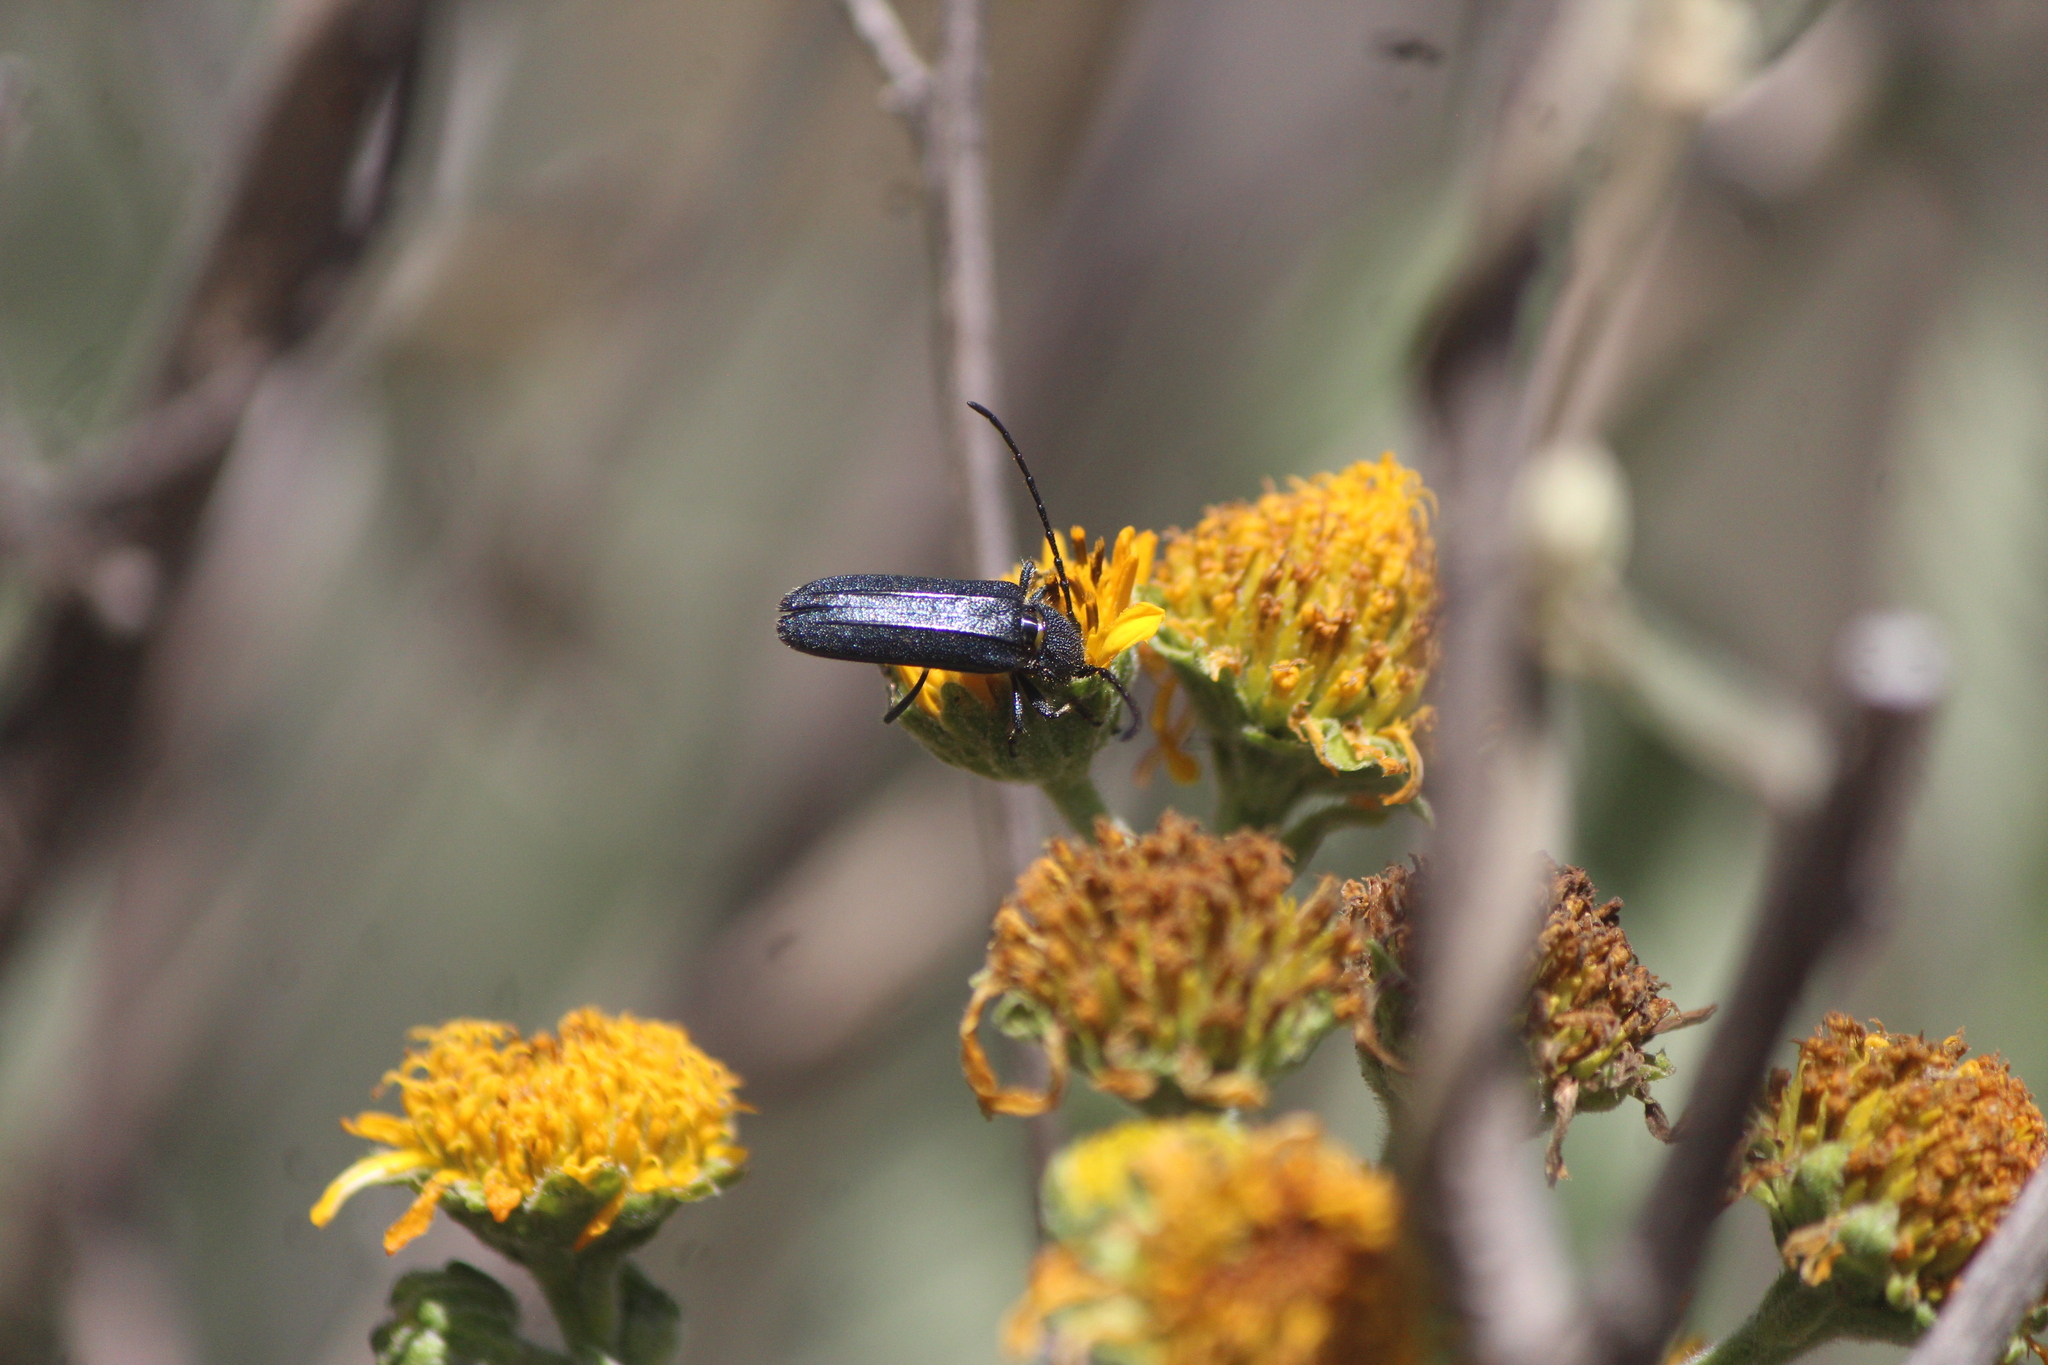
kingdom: Animalia
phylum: Arthropoda
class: Insecta
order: Coleoptera
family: Cerambycidae
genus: Mannophorus
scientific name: Mannophorus laetus
